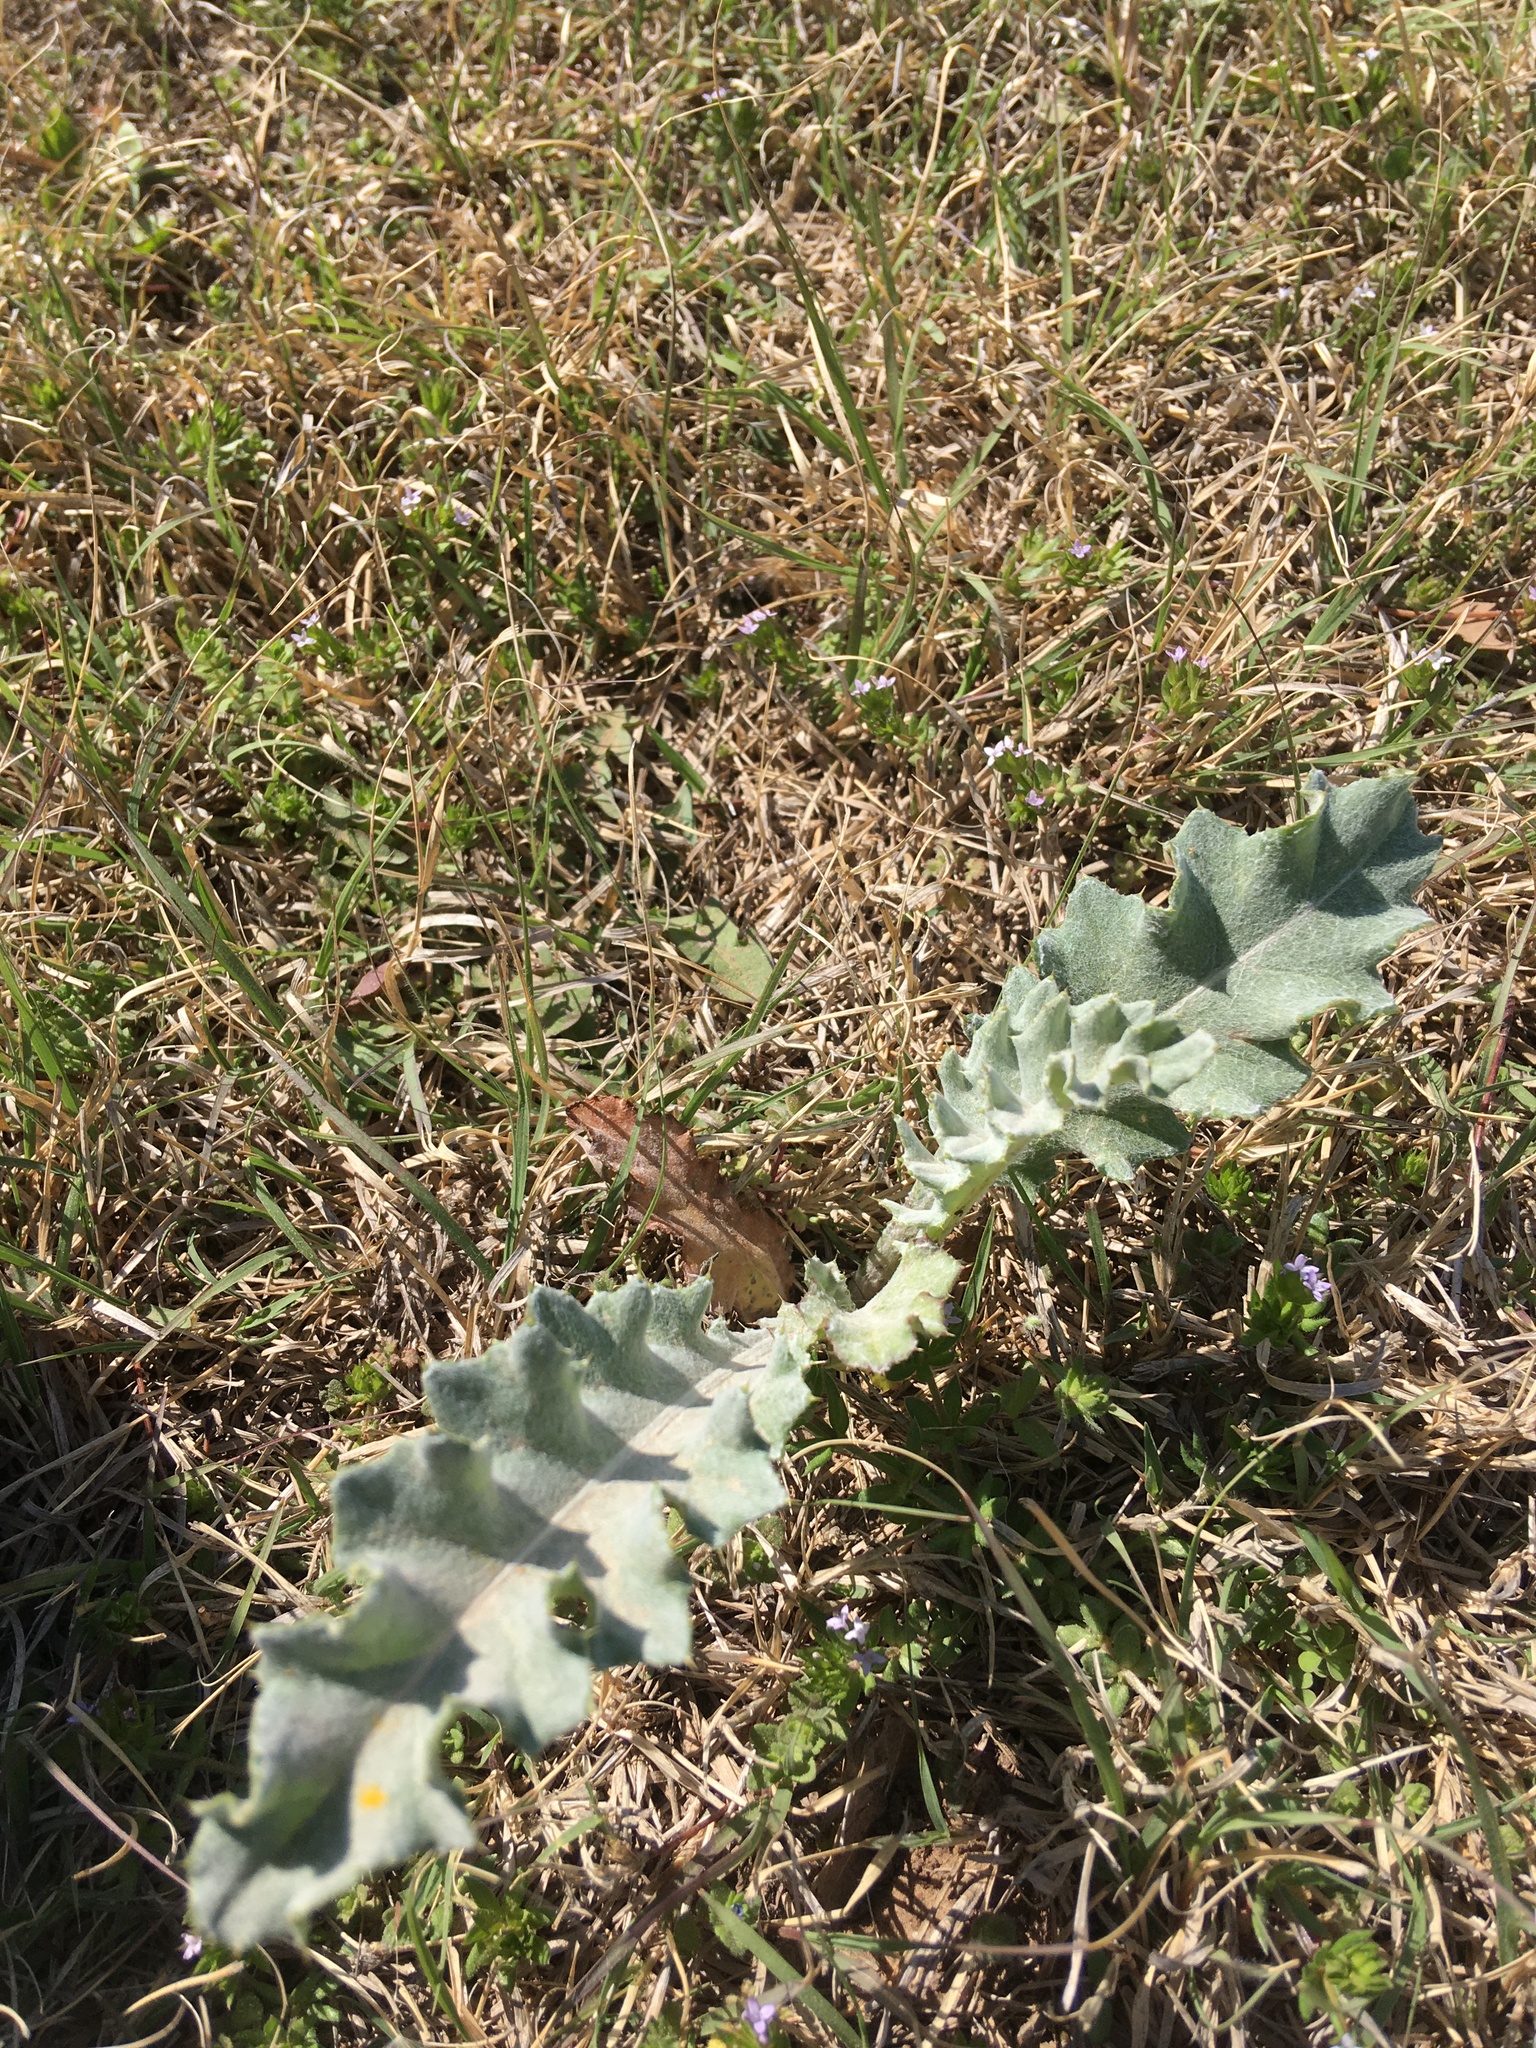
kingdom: Plantae
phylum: Tracheophyta
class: Magnoliopsida
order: Asterales
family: Asteraceae
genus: Cirsium
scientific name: Cirsium undulatum
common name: Pasture thistle
